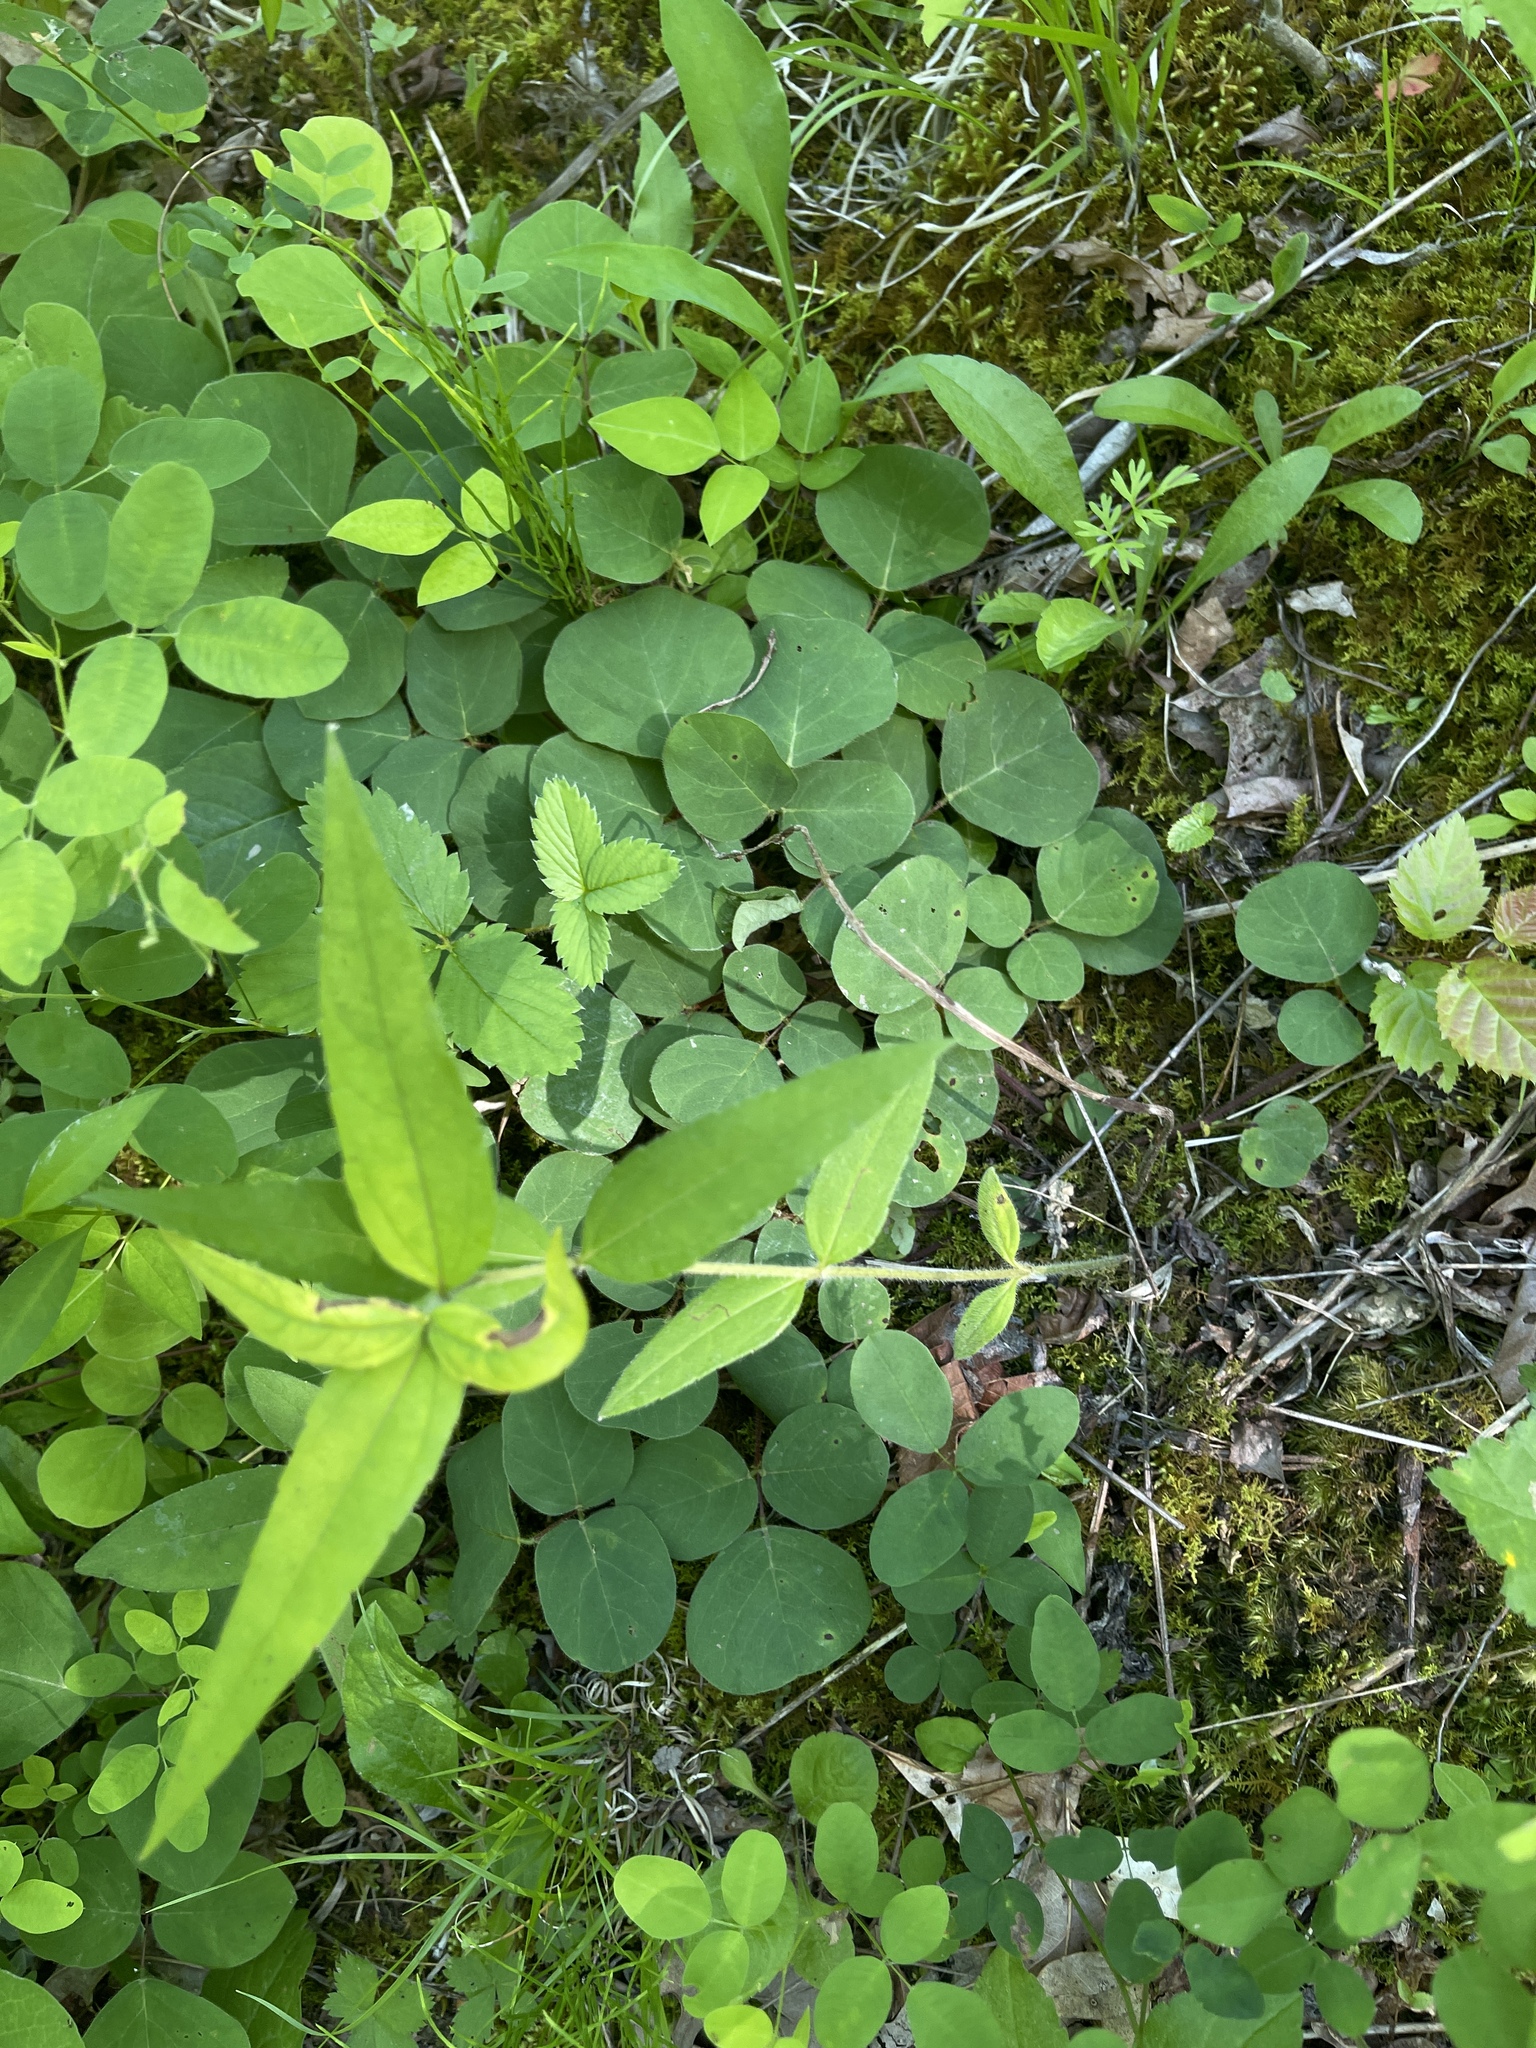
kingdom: Plantae
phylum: Tracheophyta
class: Magnoliopsida
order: Fabales
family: Fabaceae
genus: Desmodium
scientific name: Desmodium rotundifolium
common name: Dollarleaf
